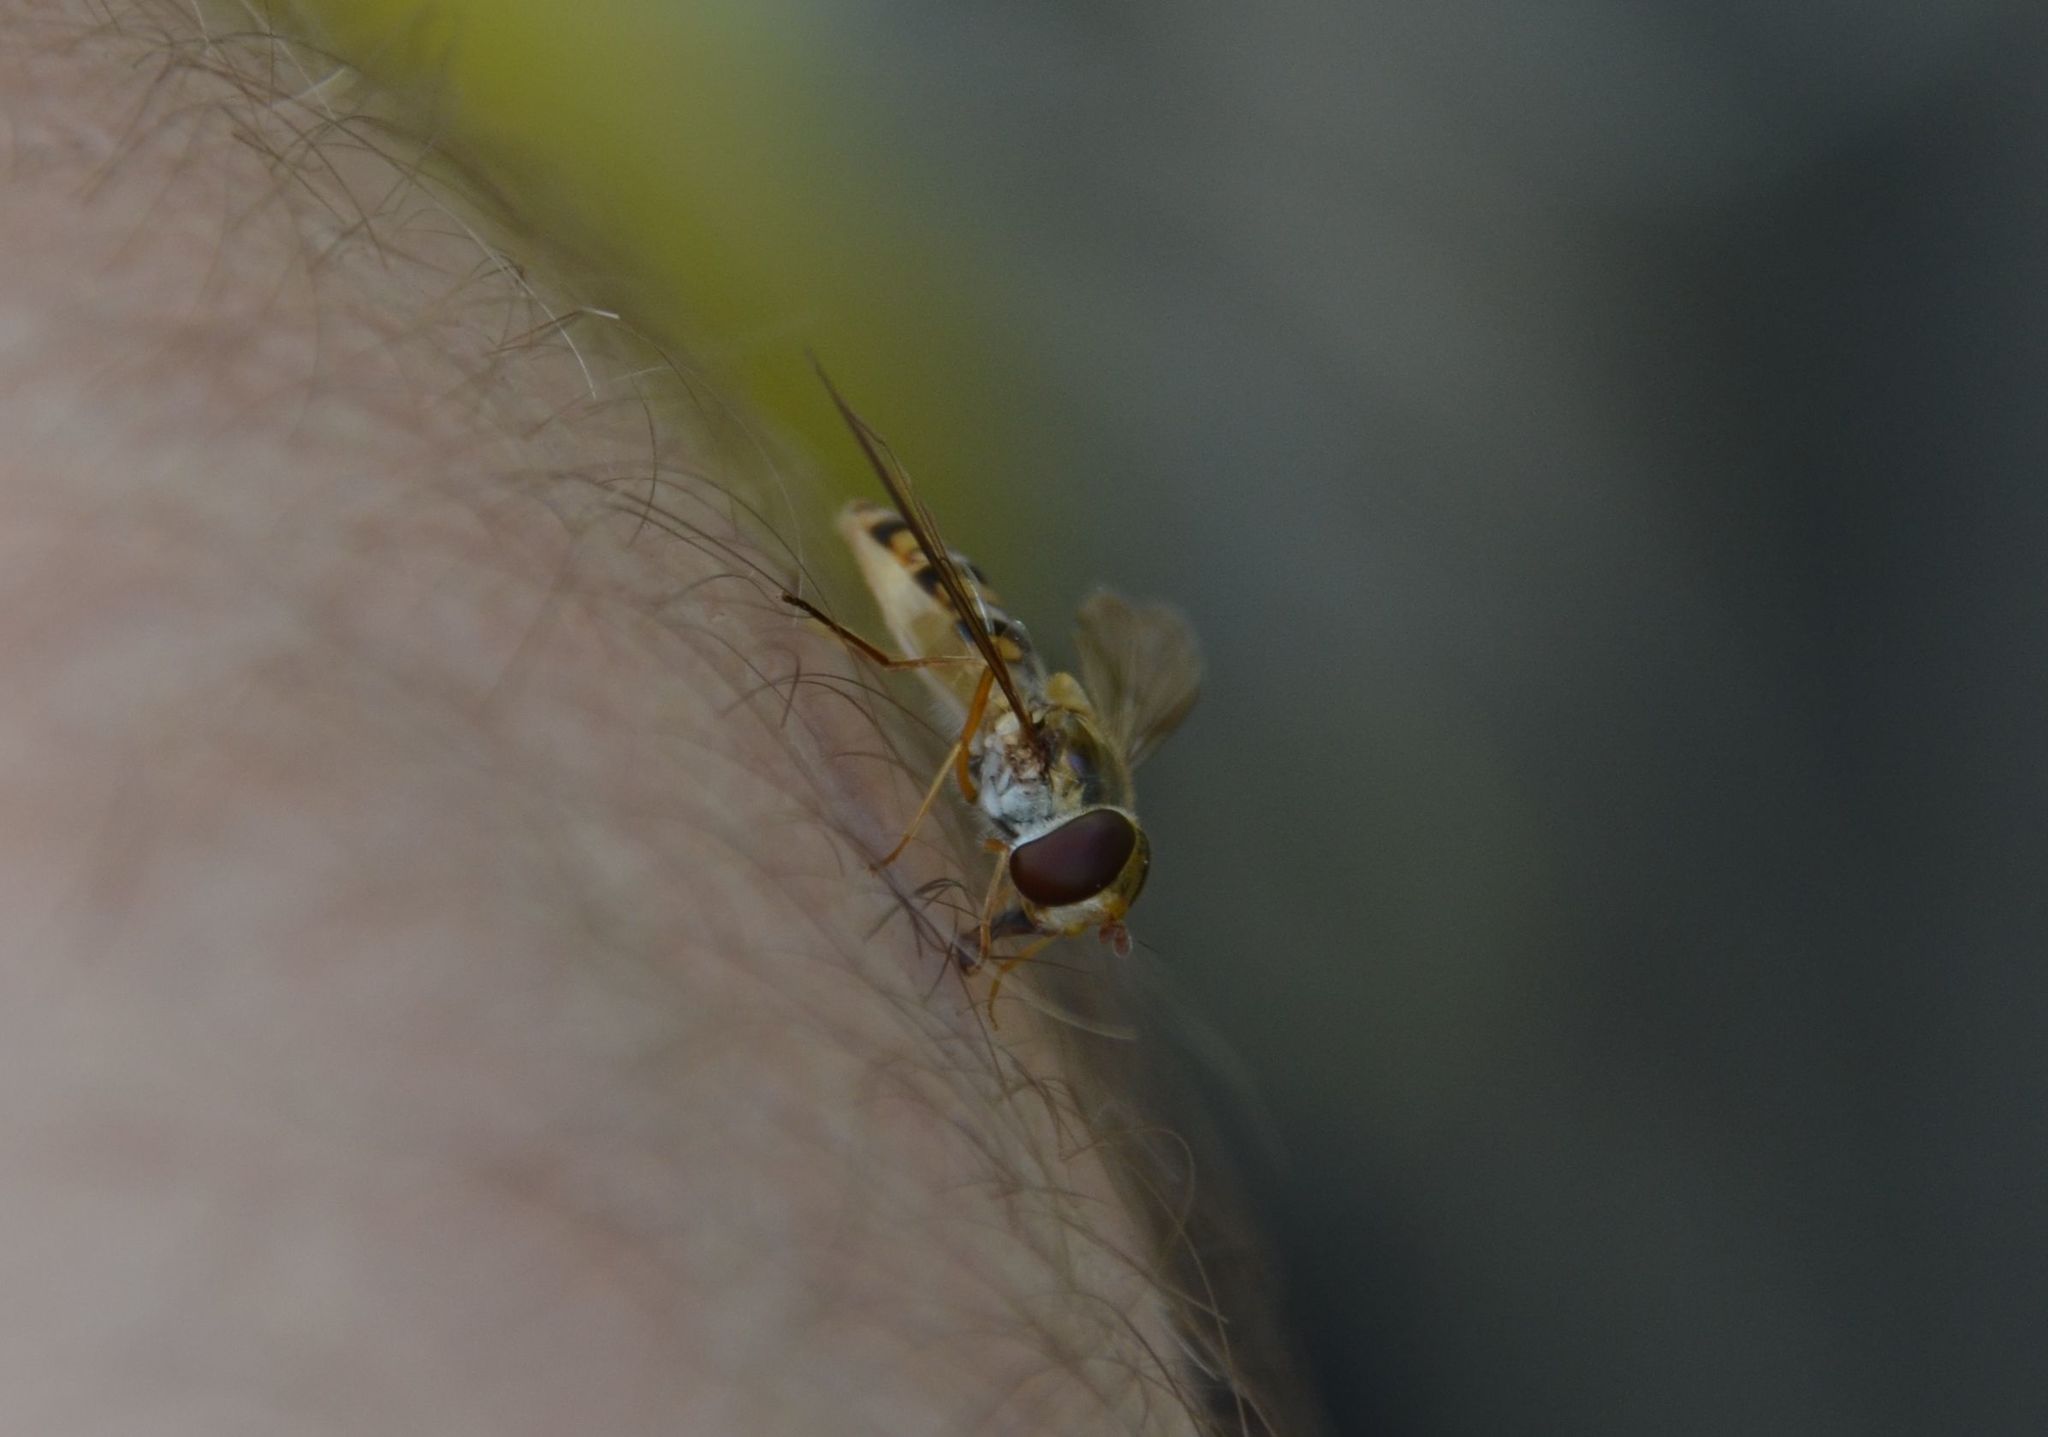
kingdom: Animalia
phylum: Arthropoda
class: Insecta
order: Diptera
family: Syrphidae
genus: Episyrphus
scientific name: Episyrphus balteatus
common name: Marmalade hoverfly
